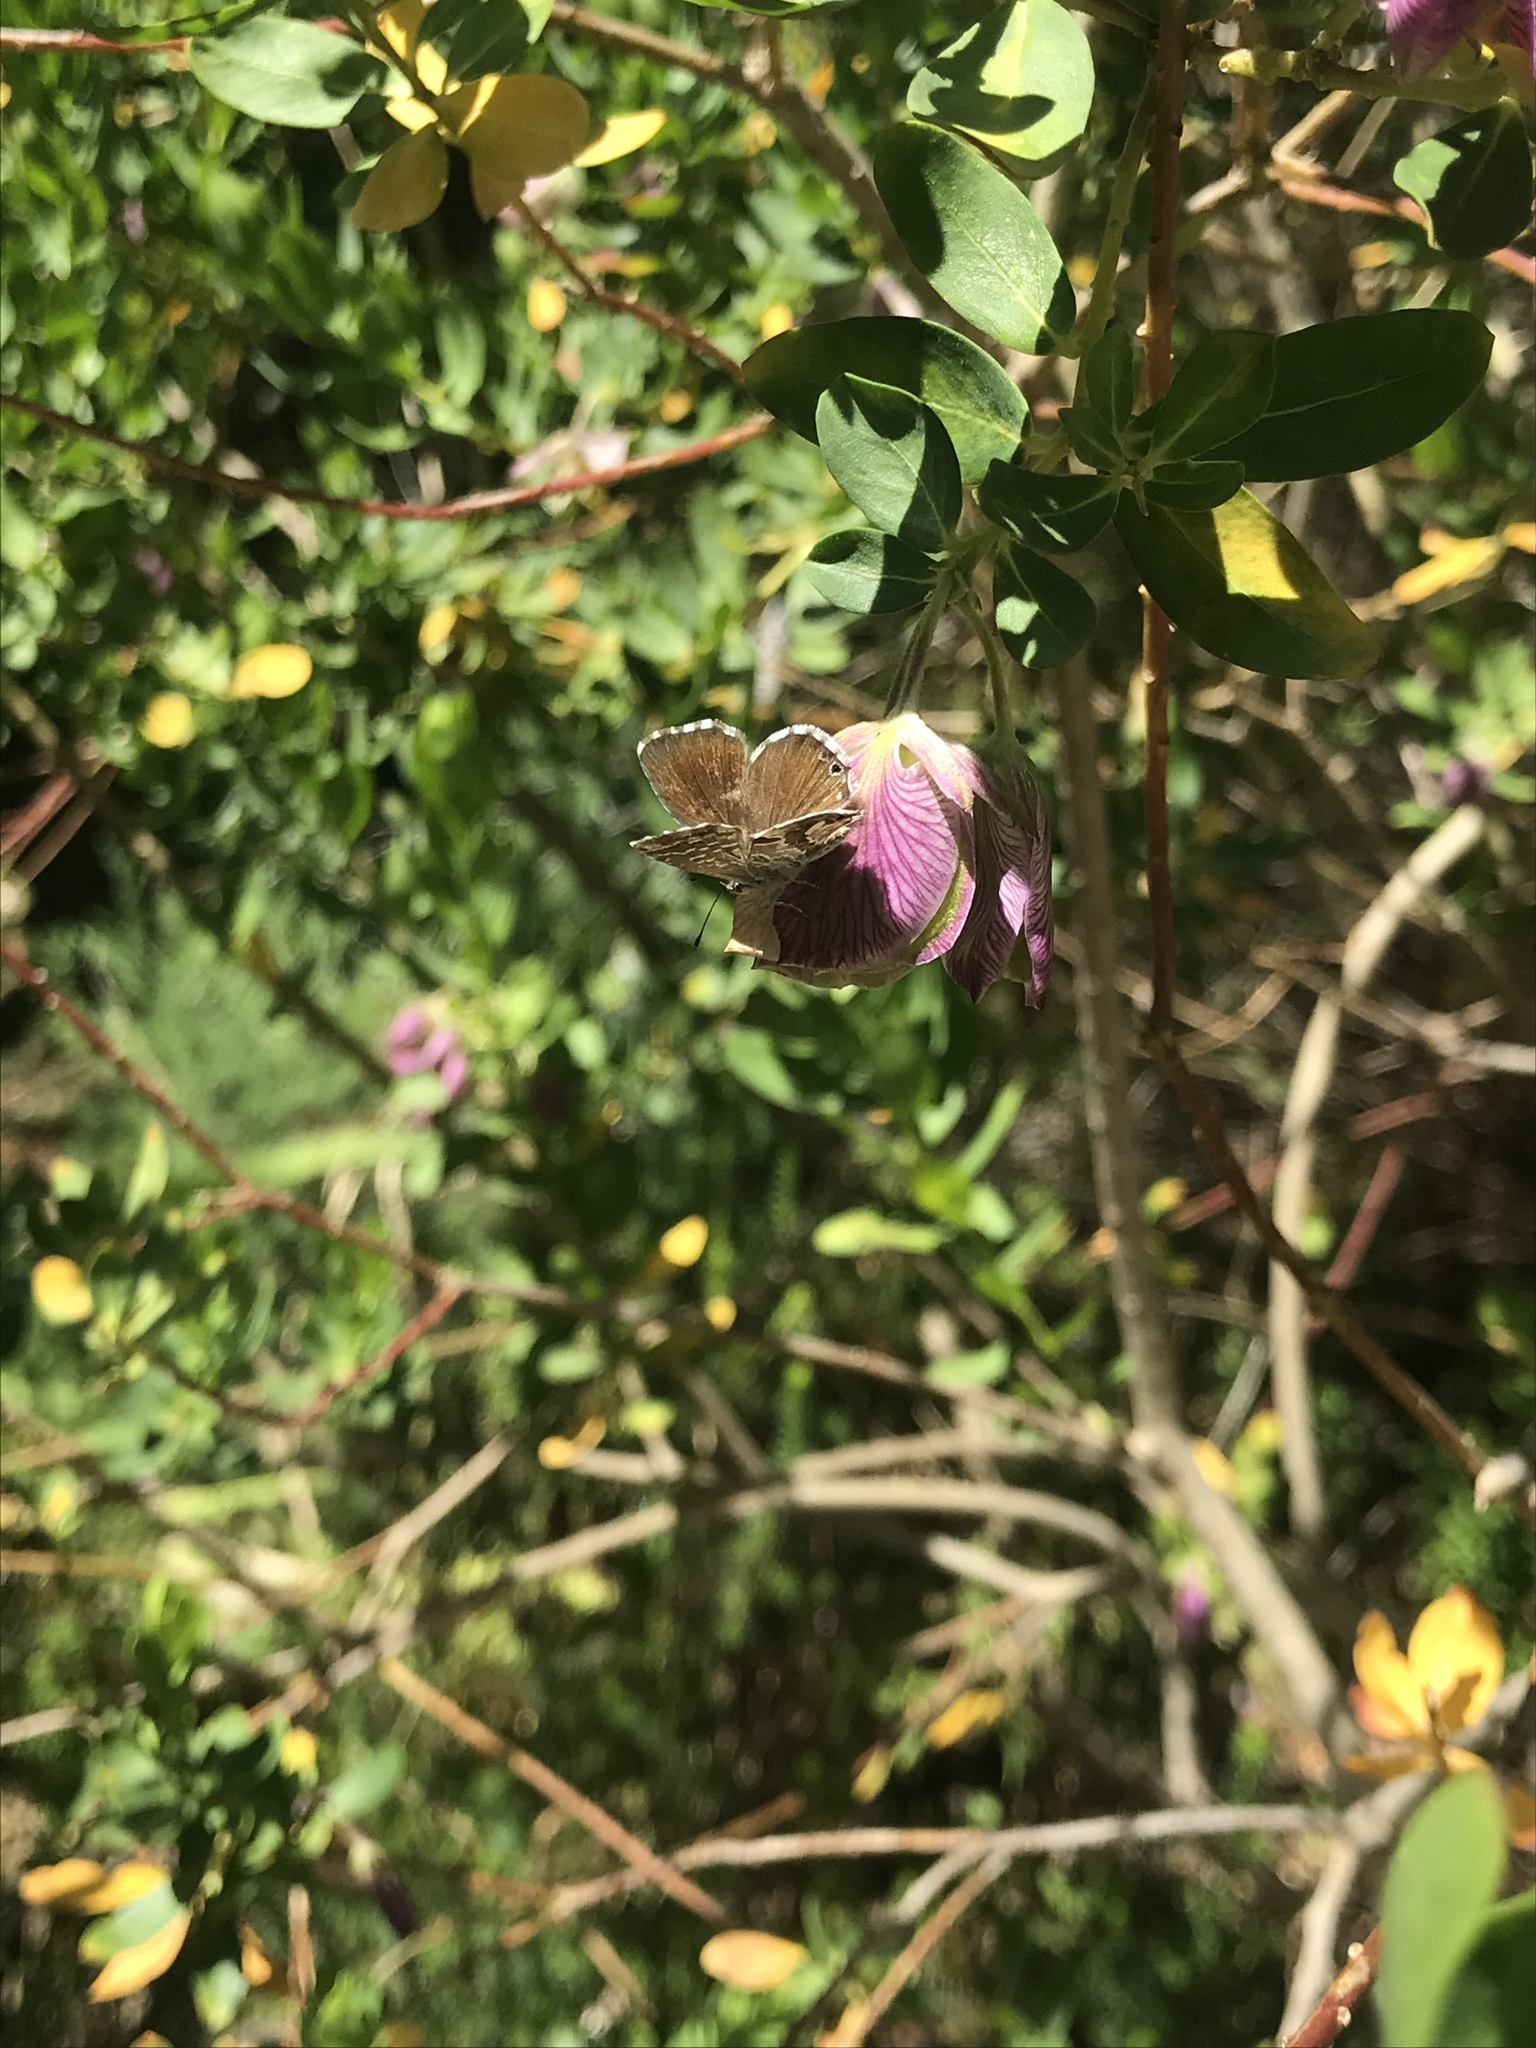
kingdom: Animalia
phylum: Arthropoda
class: Insecta
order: Lepidoptera
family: Lycaenidae
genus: Cacyreus
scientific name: Cacyreus marshalli
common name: Geranium bronze
